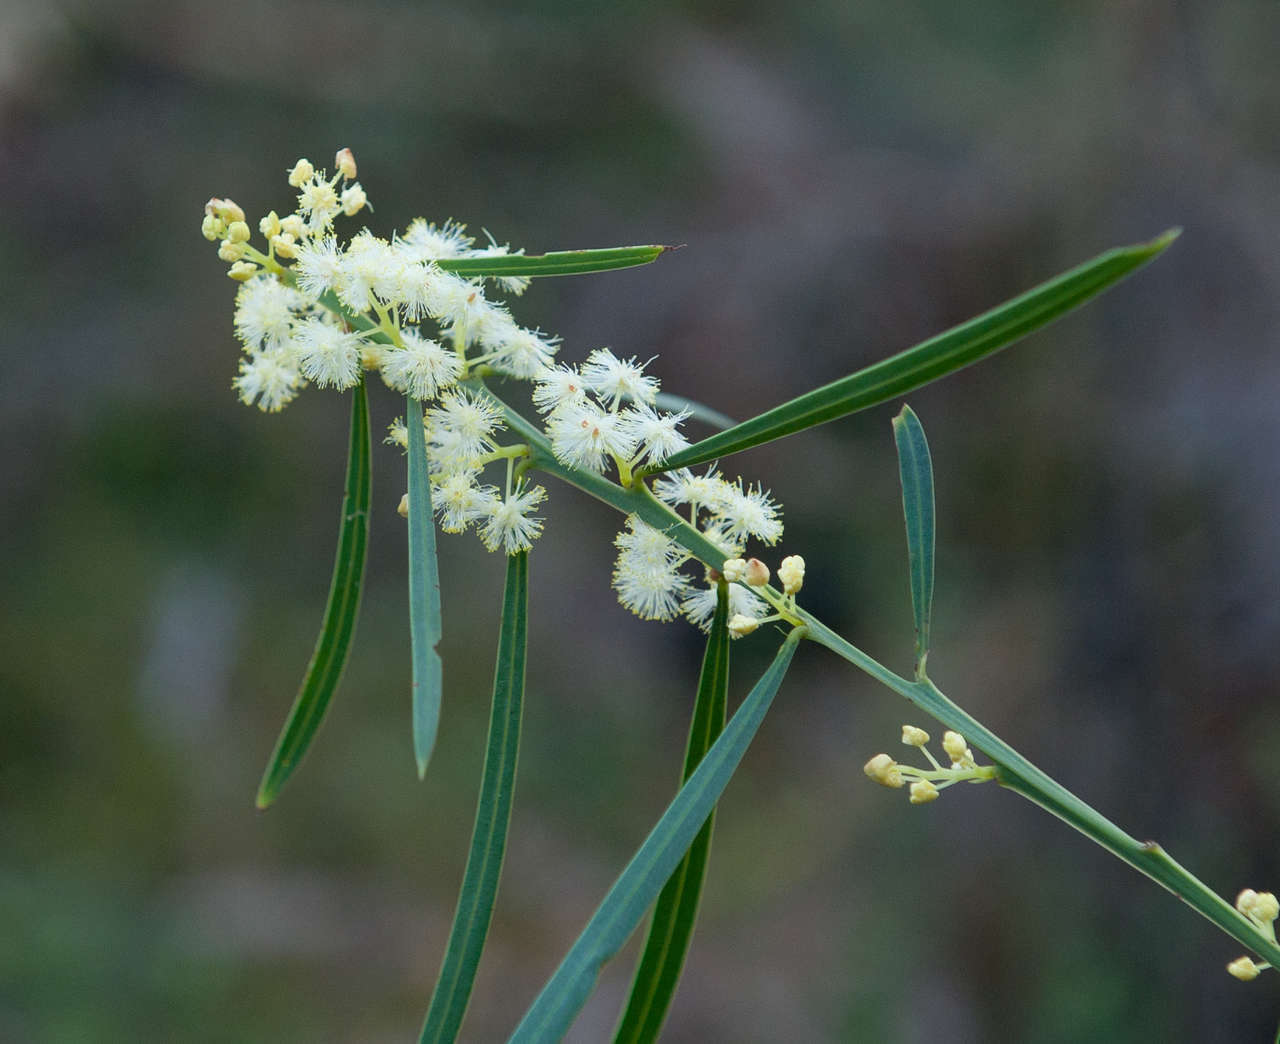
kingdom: Plantae
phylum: Tracheophyta
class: Magnoliopsida
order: Fabales
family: Fabaceae
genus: Acacia
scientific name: Acacia suaveolens
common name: Sweet acacia
